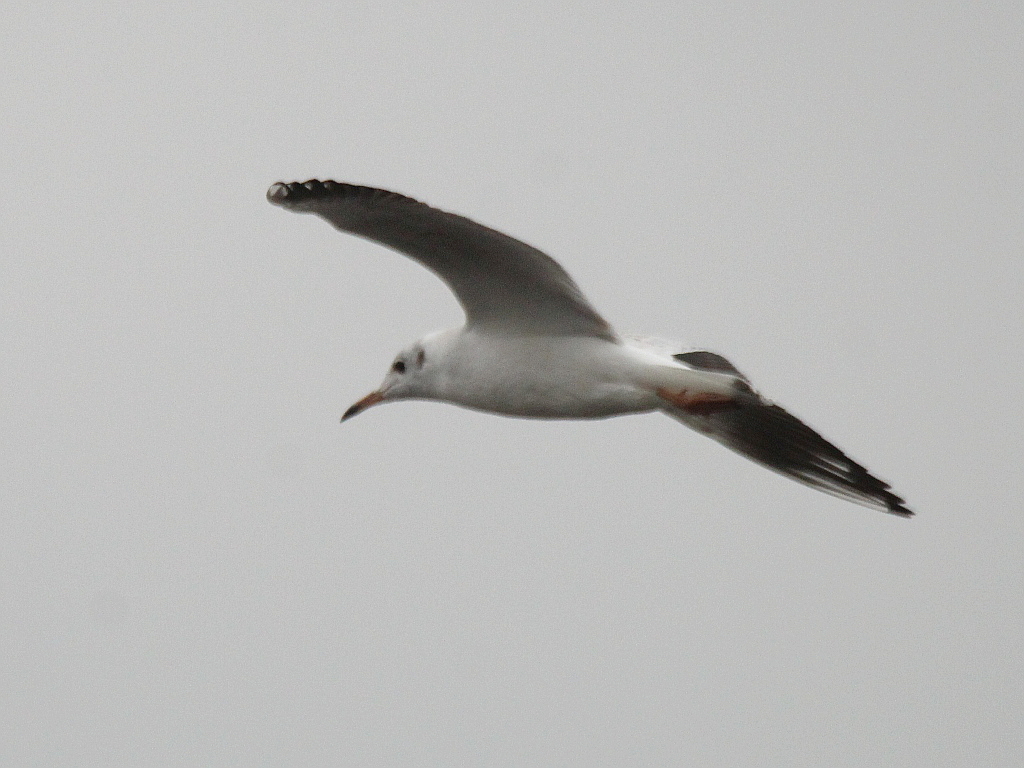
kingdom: Animalia
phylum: Chordata
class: Aves
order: Charadriiformes
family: Laridae
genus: Chroicocephalus
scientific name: Chroicocephalus ridibundus
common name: Black-headed gull
